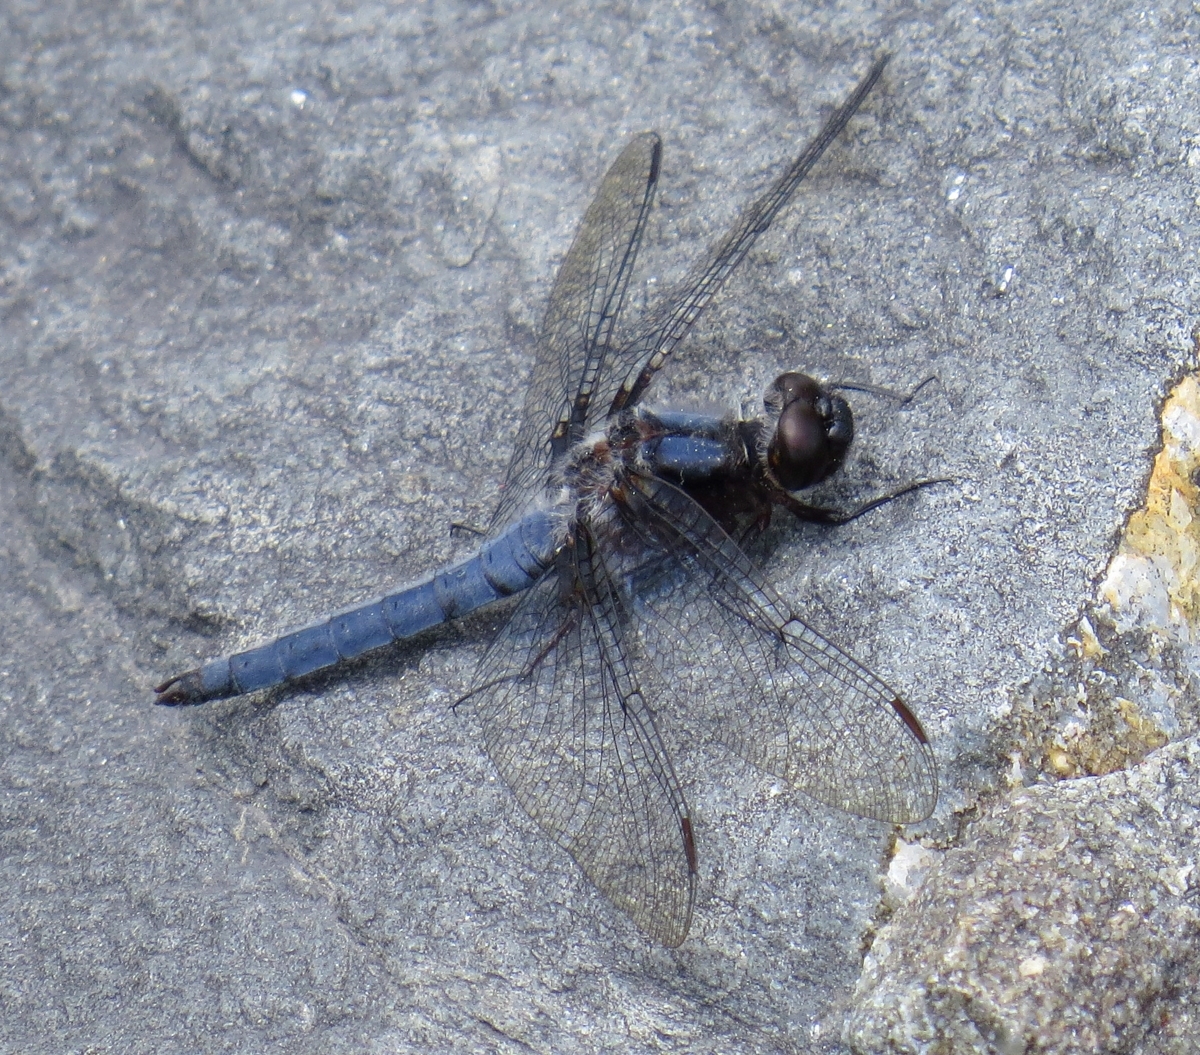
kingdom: Animalia
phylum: Arthropoda
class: Insecta
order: Odonata
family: Libellulidae
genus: Ladona
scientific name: Ladona deplanata
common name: Blue corporal
